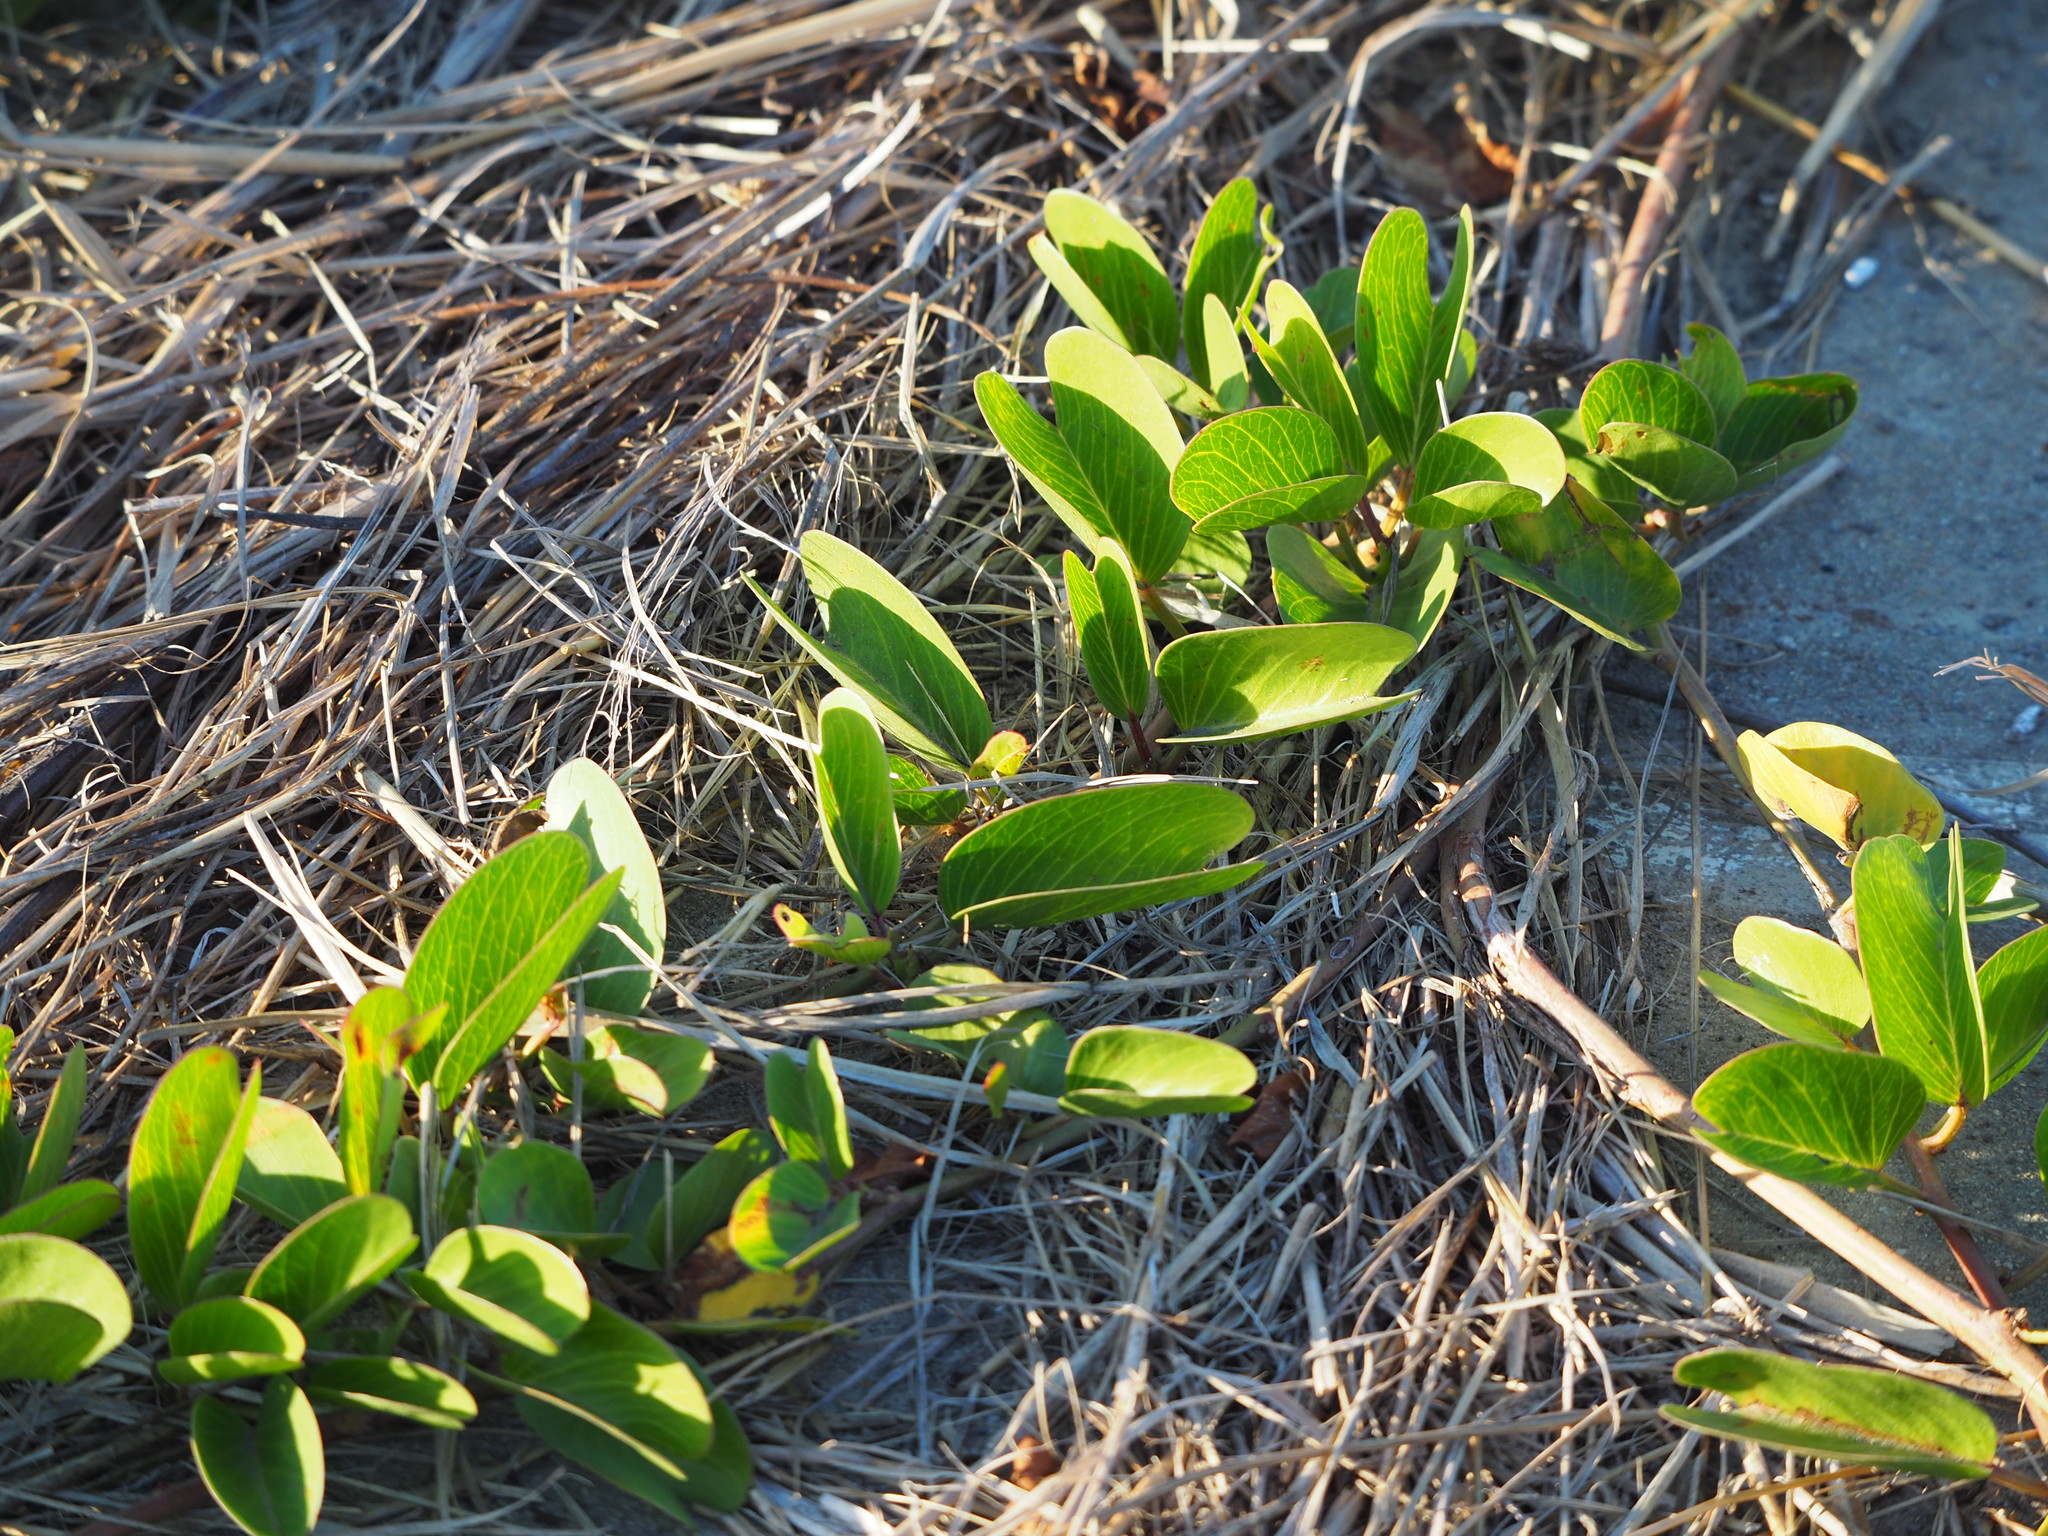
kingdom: Plantae
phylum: Tracheophyta
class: Magnoliopsida
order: Solanales
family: Convolvulaceae
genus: Ipomoea
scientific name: Ipomoea pes-caprae
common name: Beach morning glory
